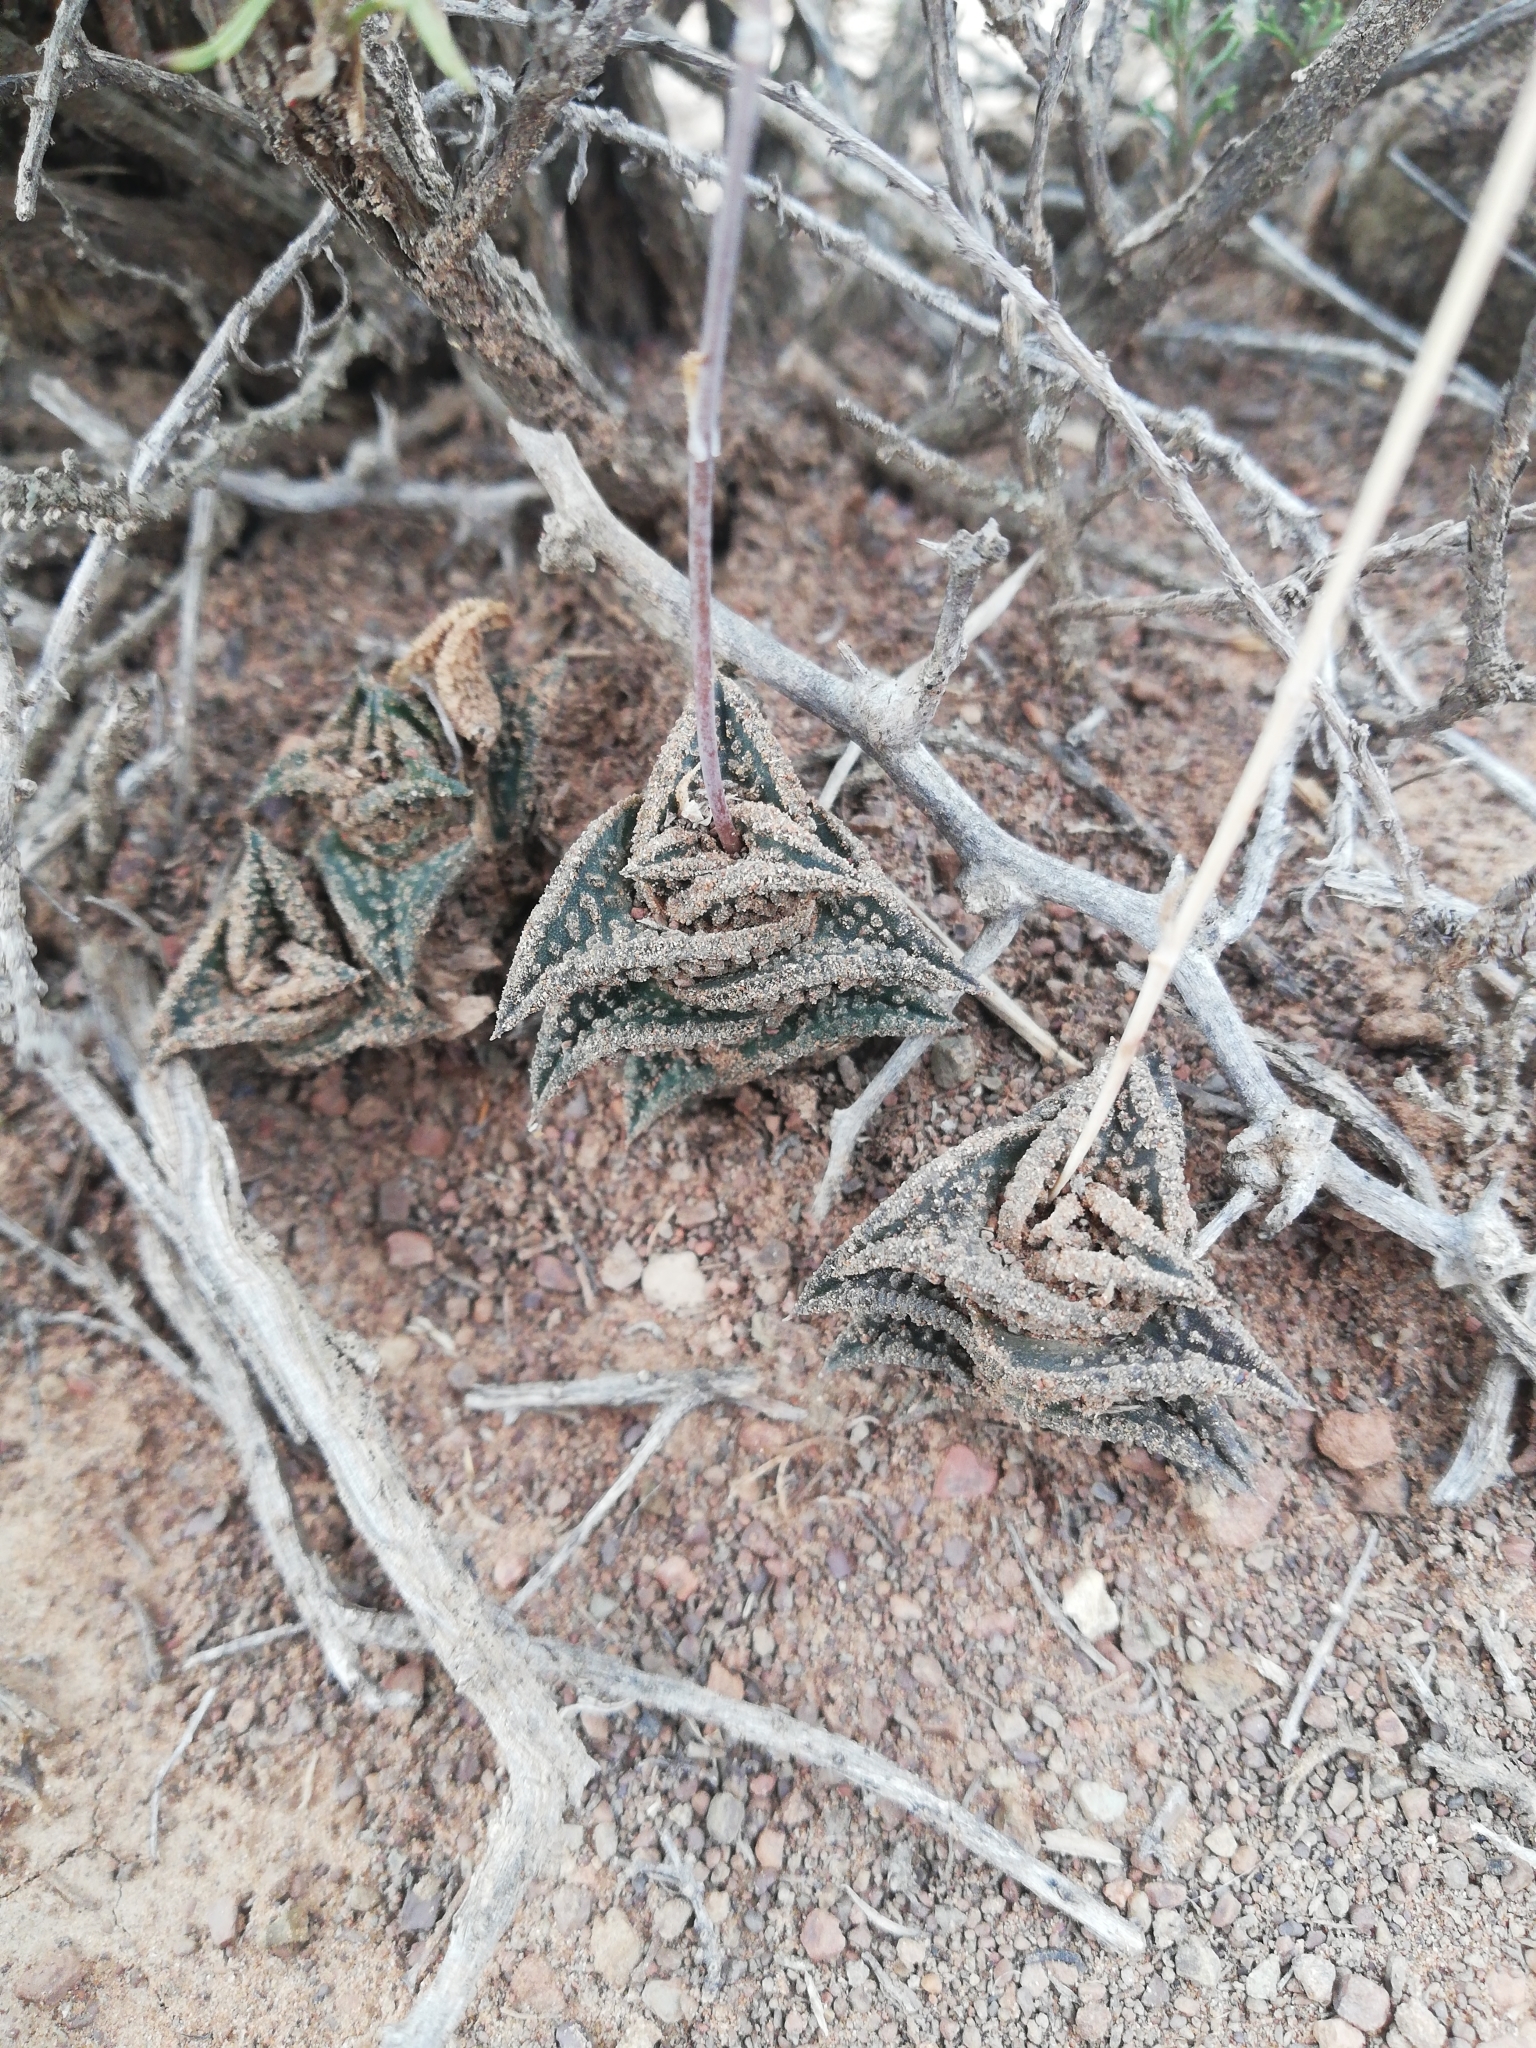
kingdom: Plantae
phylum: Tracheophyta
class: Liliopsida
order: Asparagales
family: Asphodelaceae
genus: Haworthiopsis
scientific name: Haworthiopsis nigra
